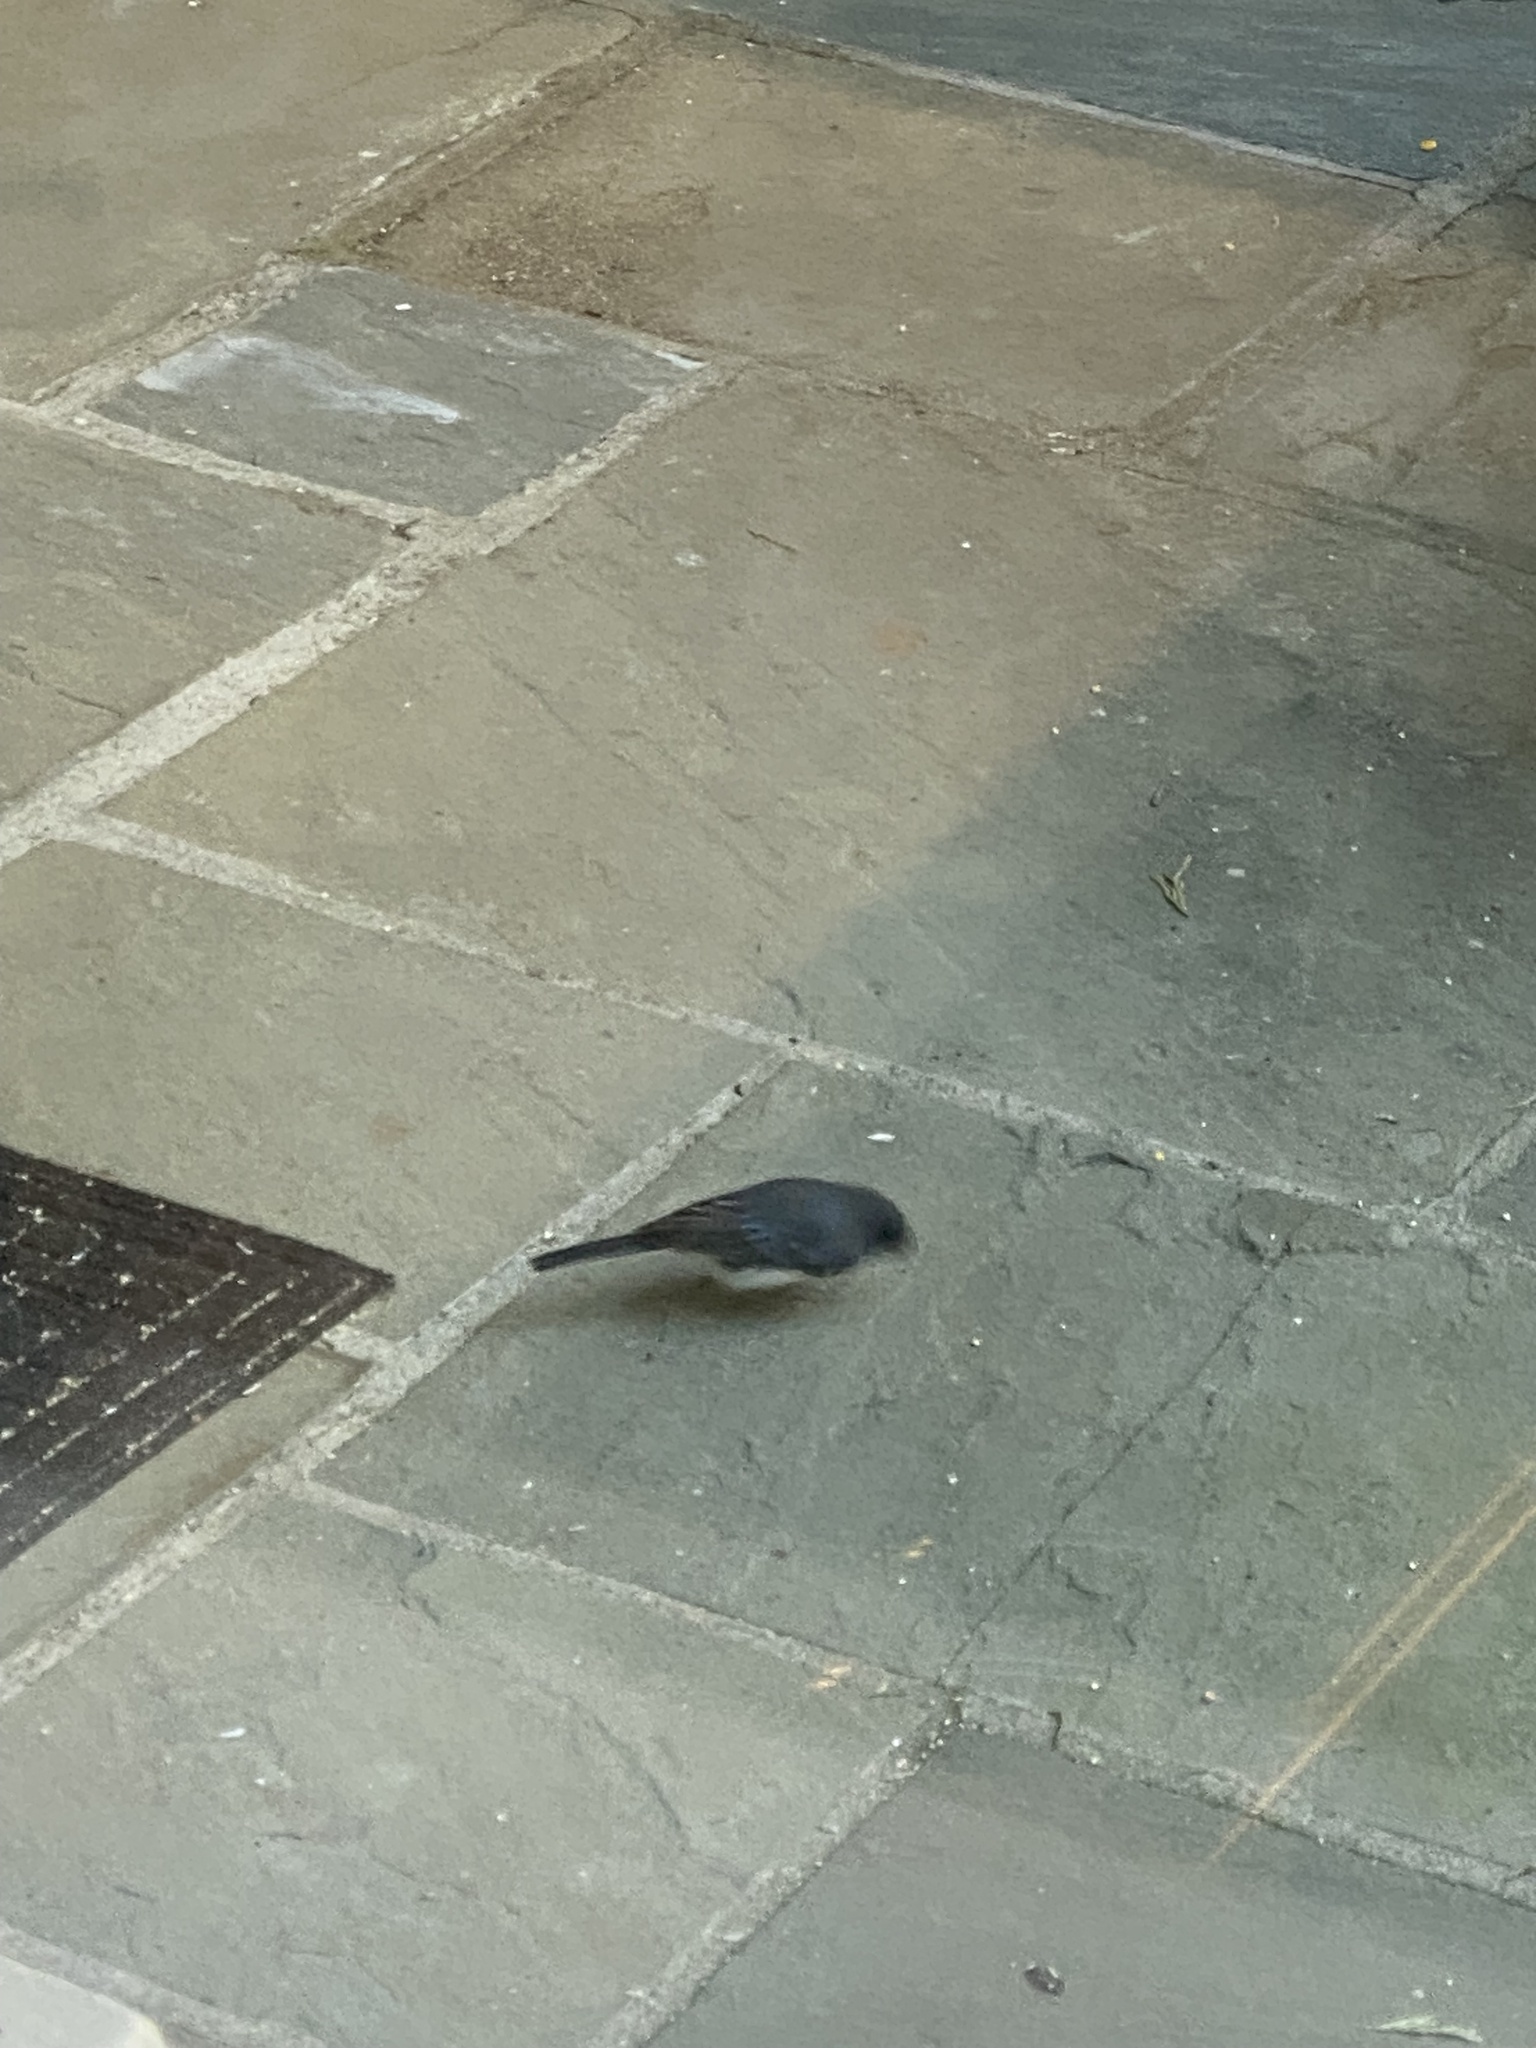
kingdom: Animalia
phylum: Chordata
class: Aves
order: Passeriformes
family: Passerellidae
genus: Junco
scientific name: Junco hyemalis
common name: Dark-eyed junco
